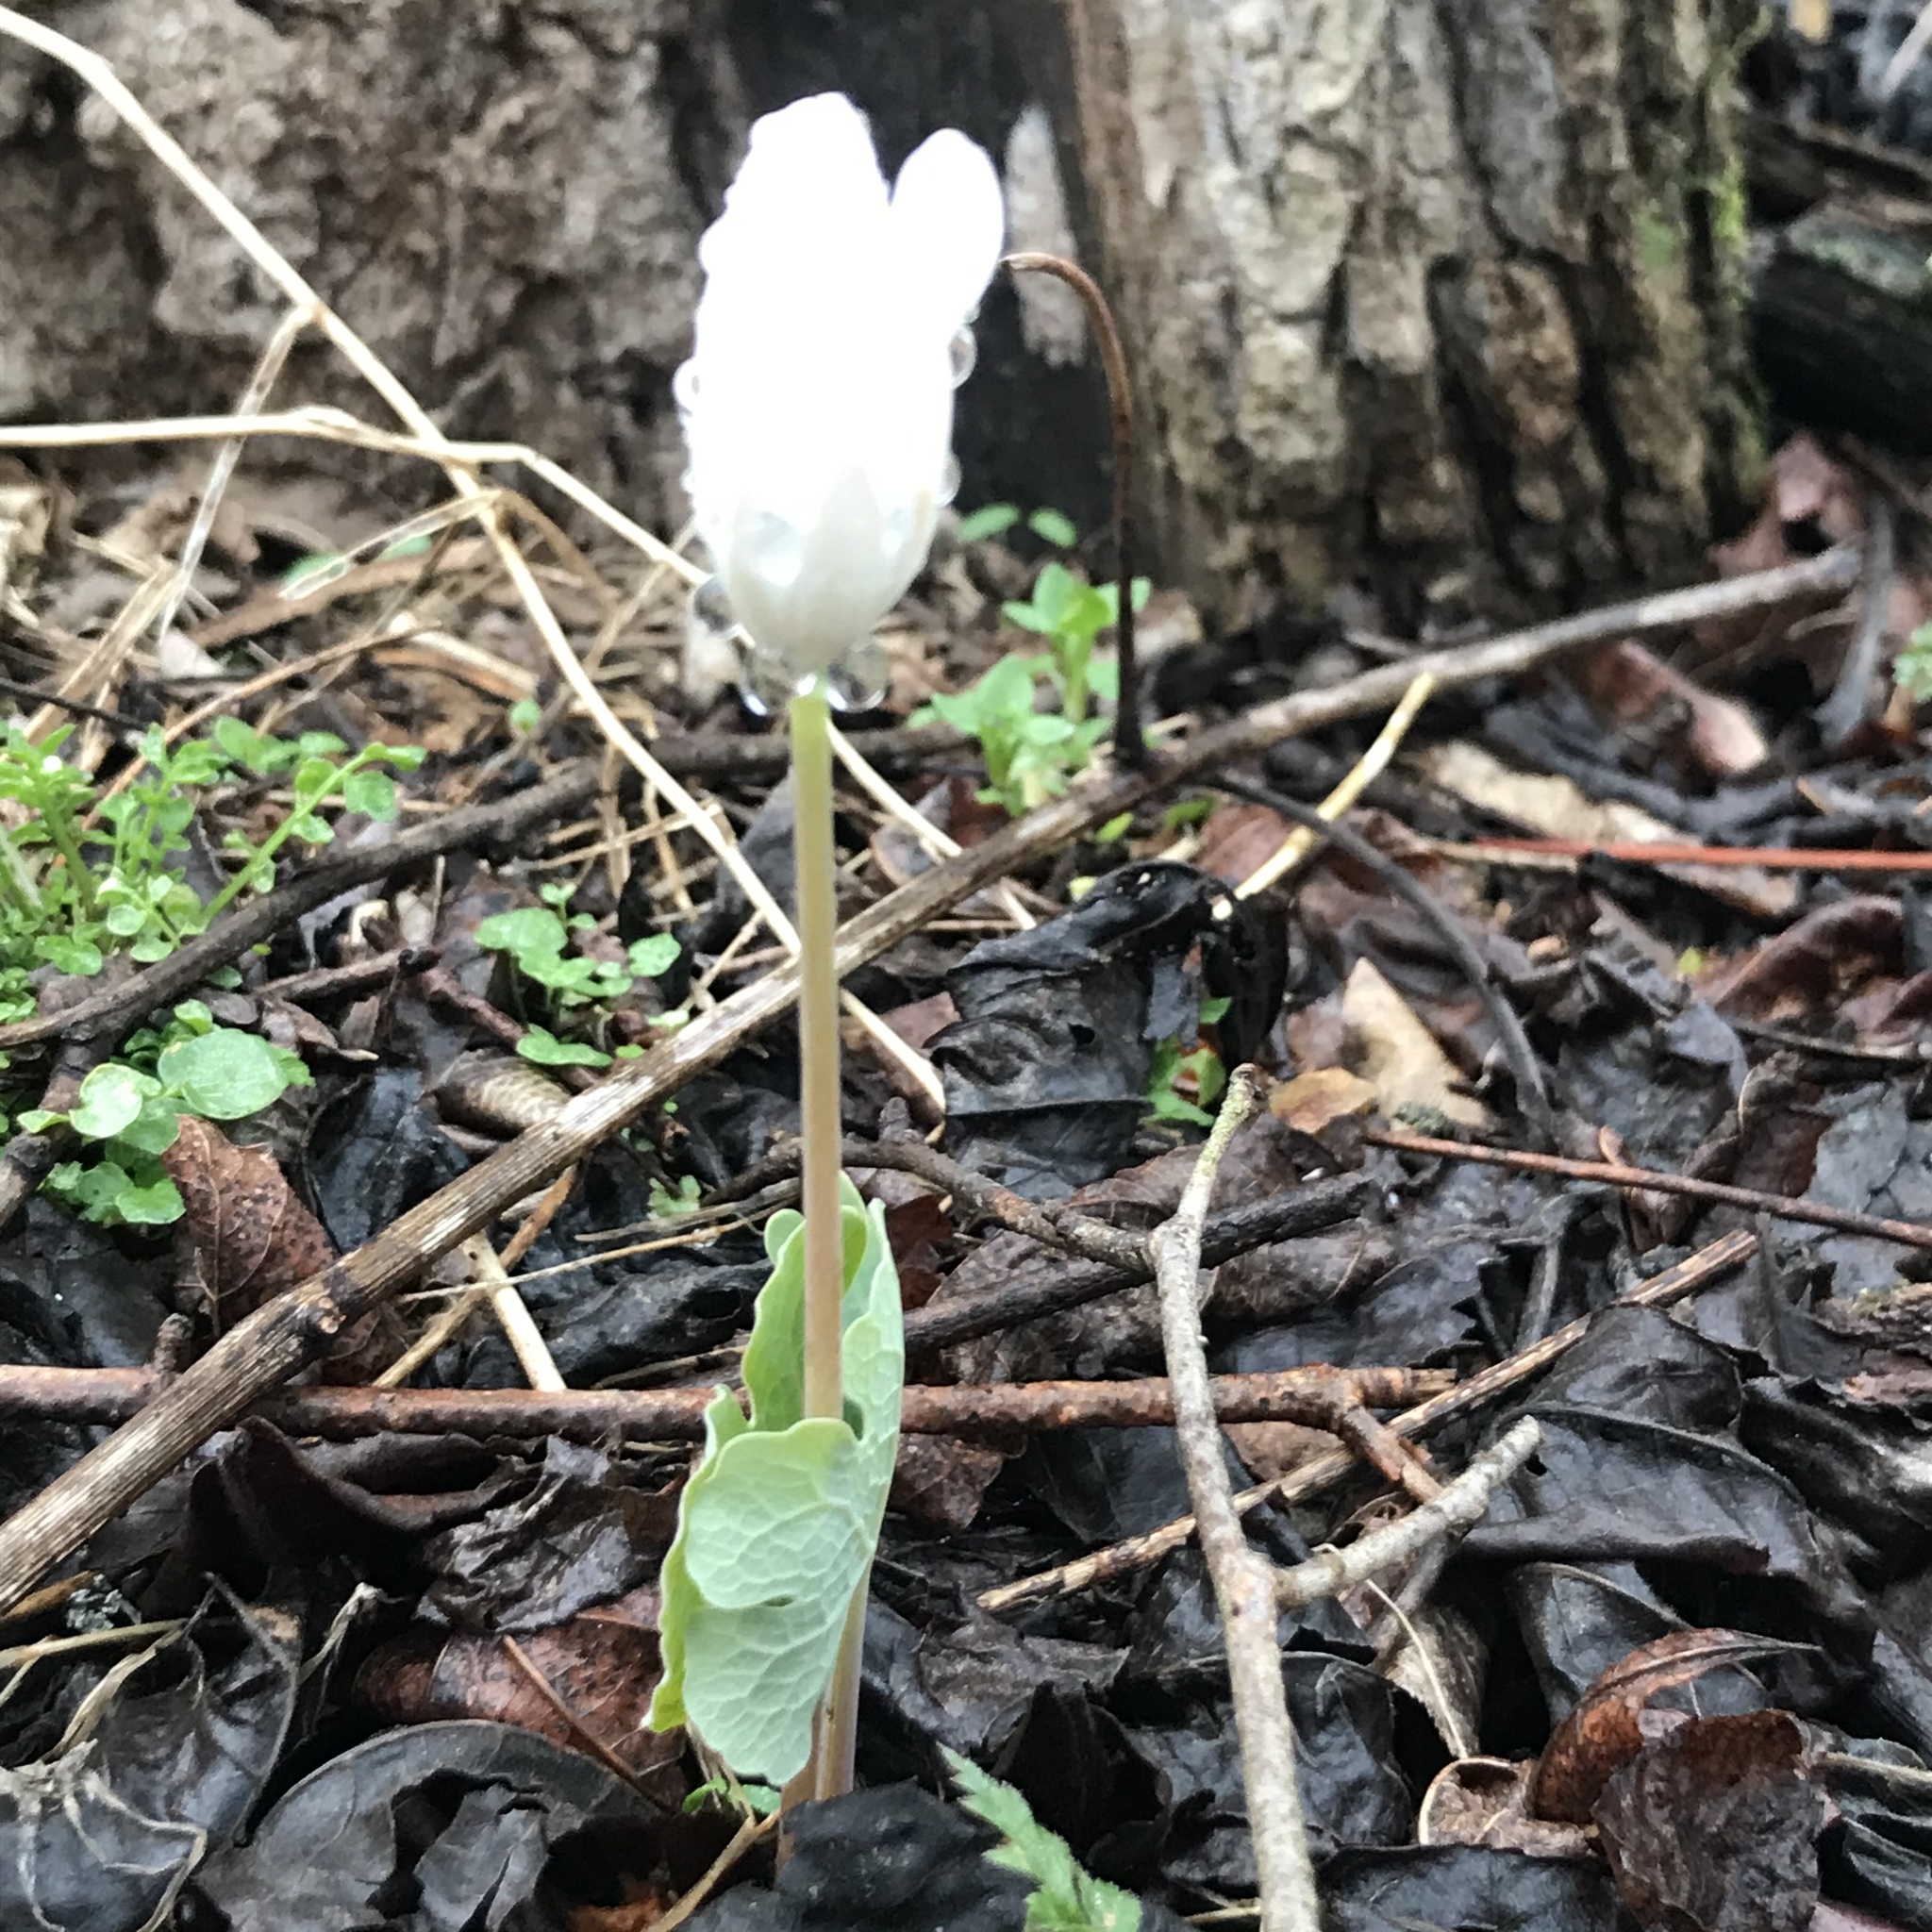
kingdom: Plantae
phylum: Tracheophyta
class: Magnoliopsida
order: Ranunculales
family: Papaveraceae
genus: Sanguinaria
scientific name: Sanguinaria canadensis
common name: Bloodroot
